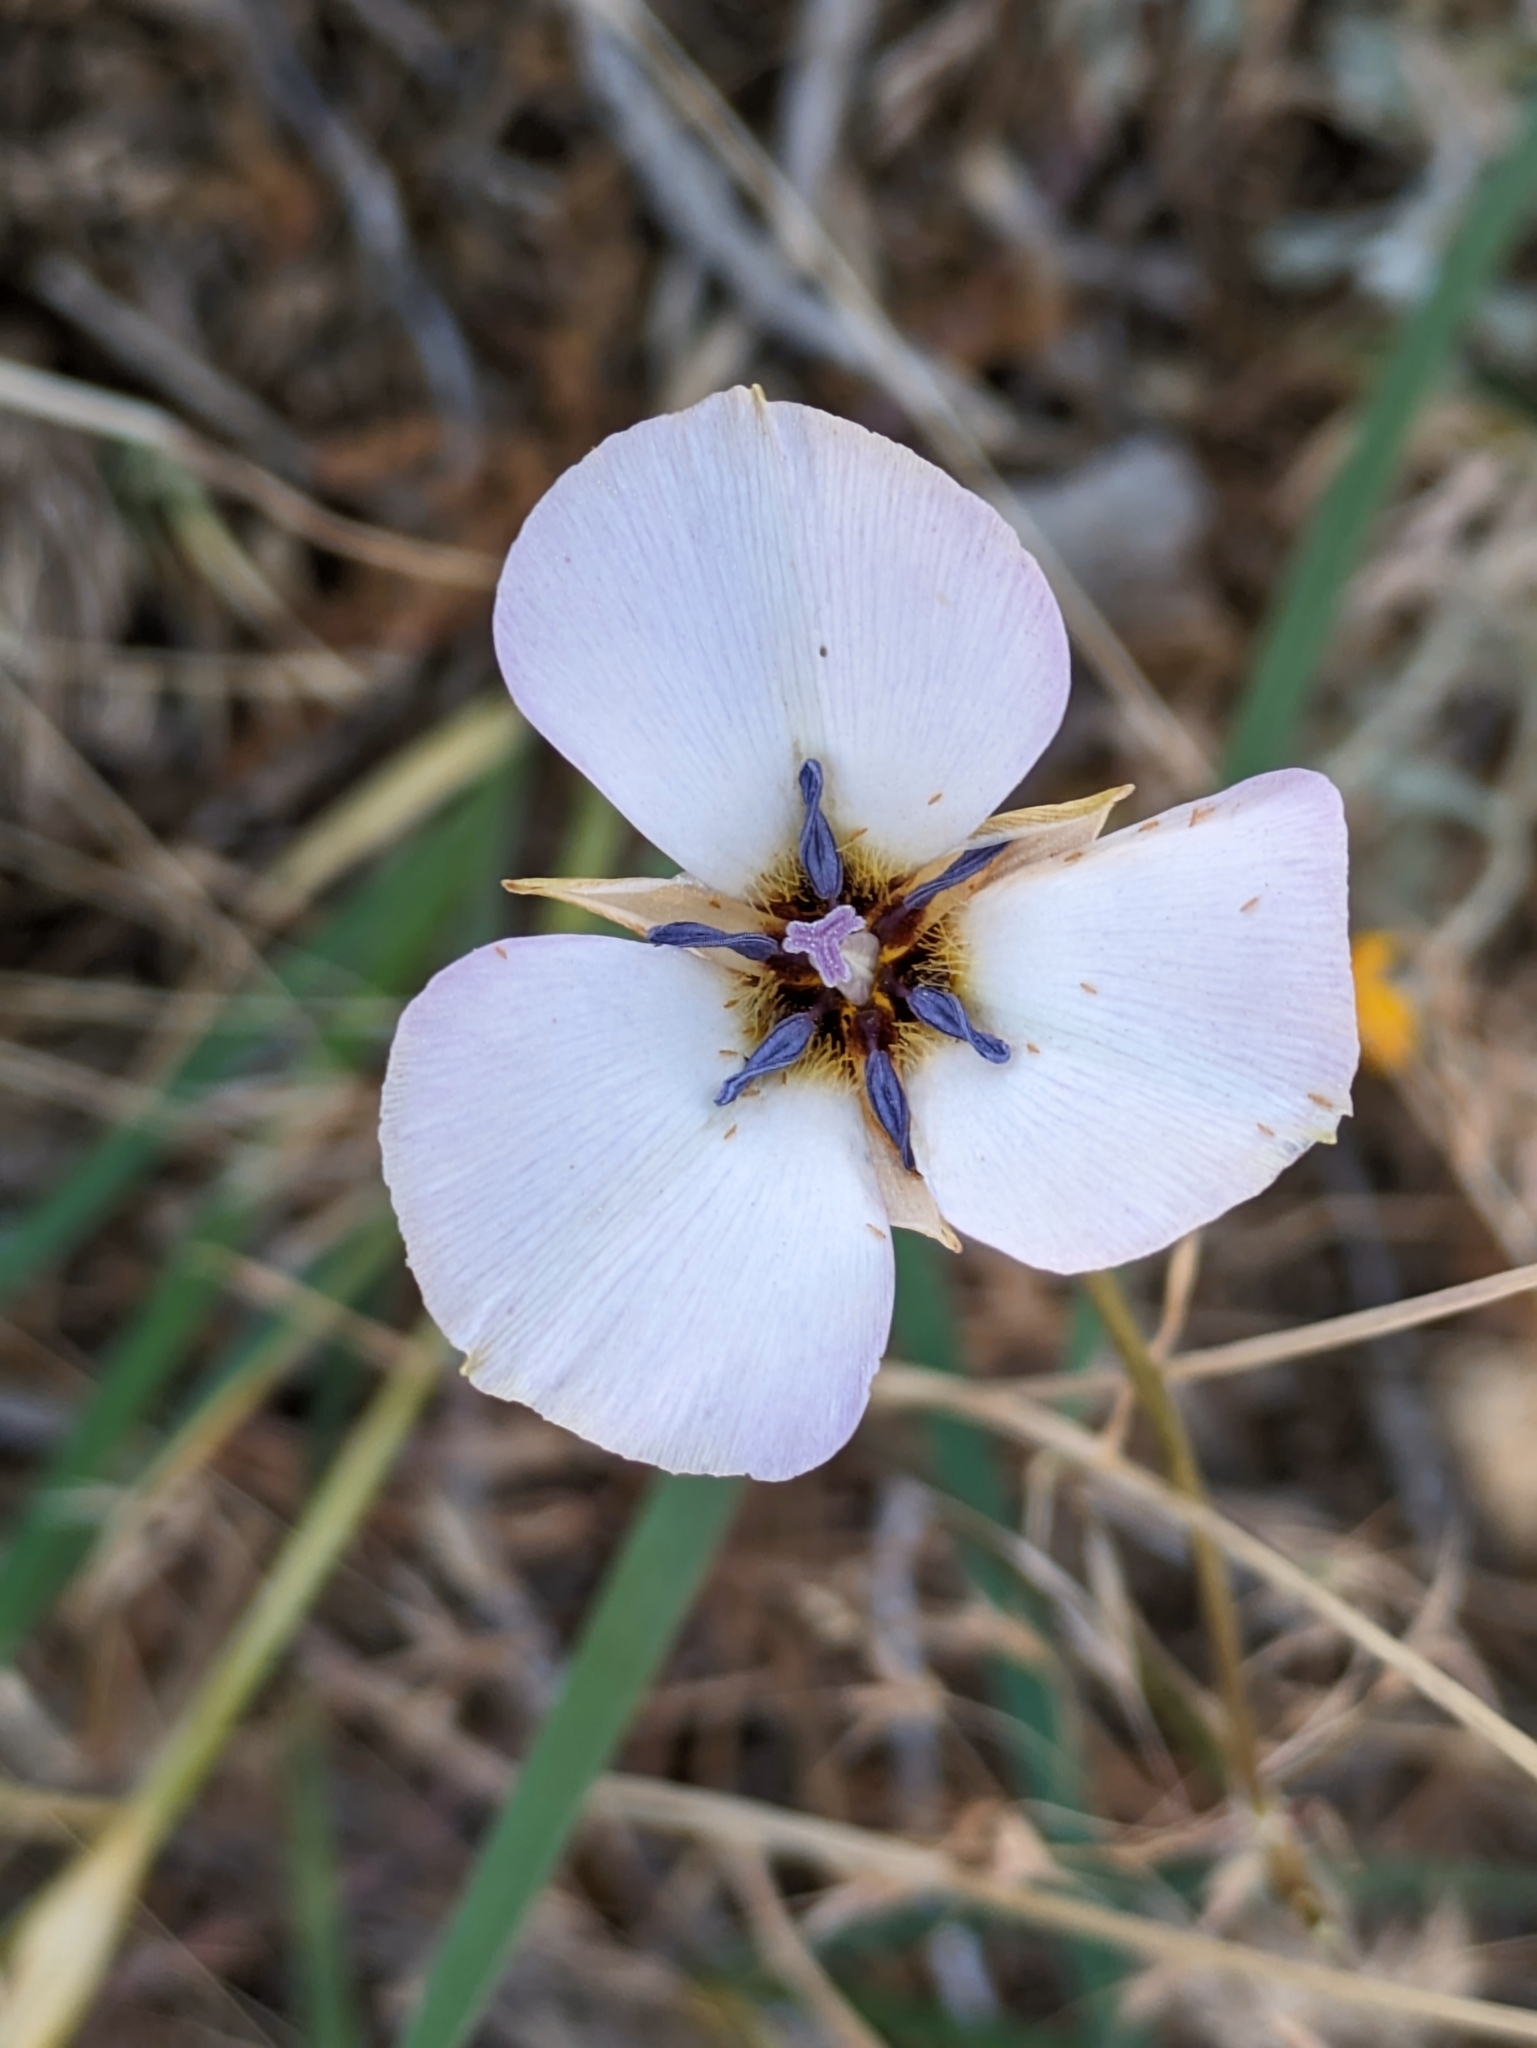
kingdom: Plantae
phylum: Tracheophyta
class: Liliopsida
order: Liliales
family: Liliaceae
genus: Calochortus
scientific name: Calochortus invenustus
